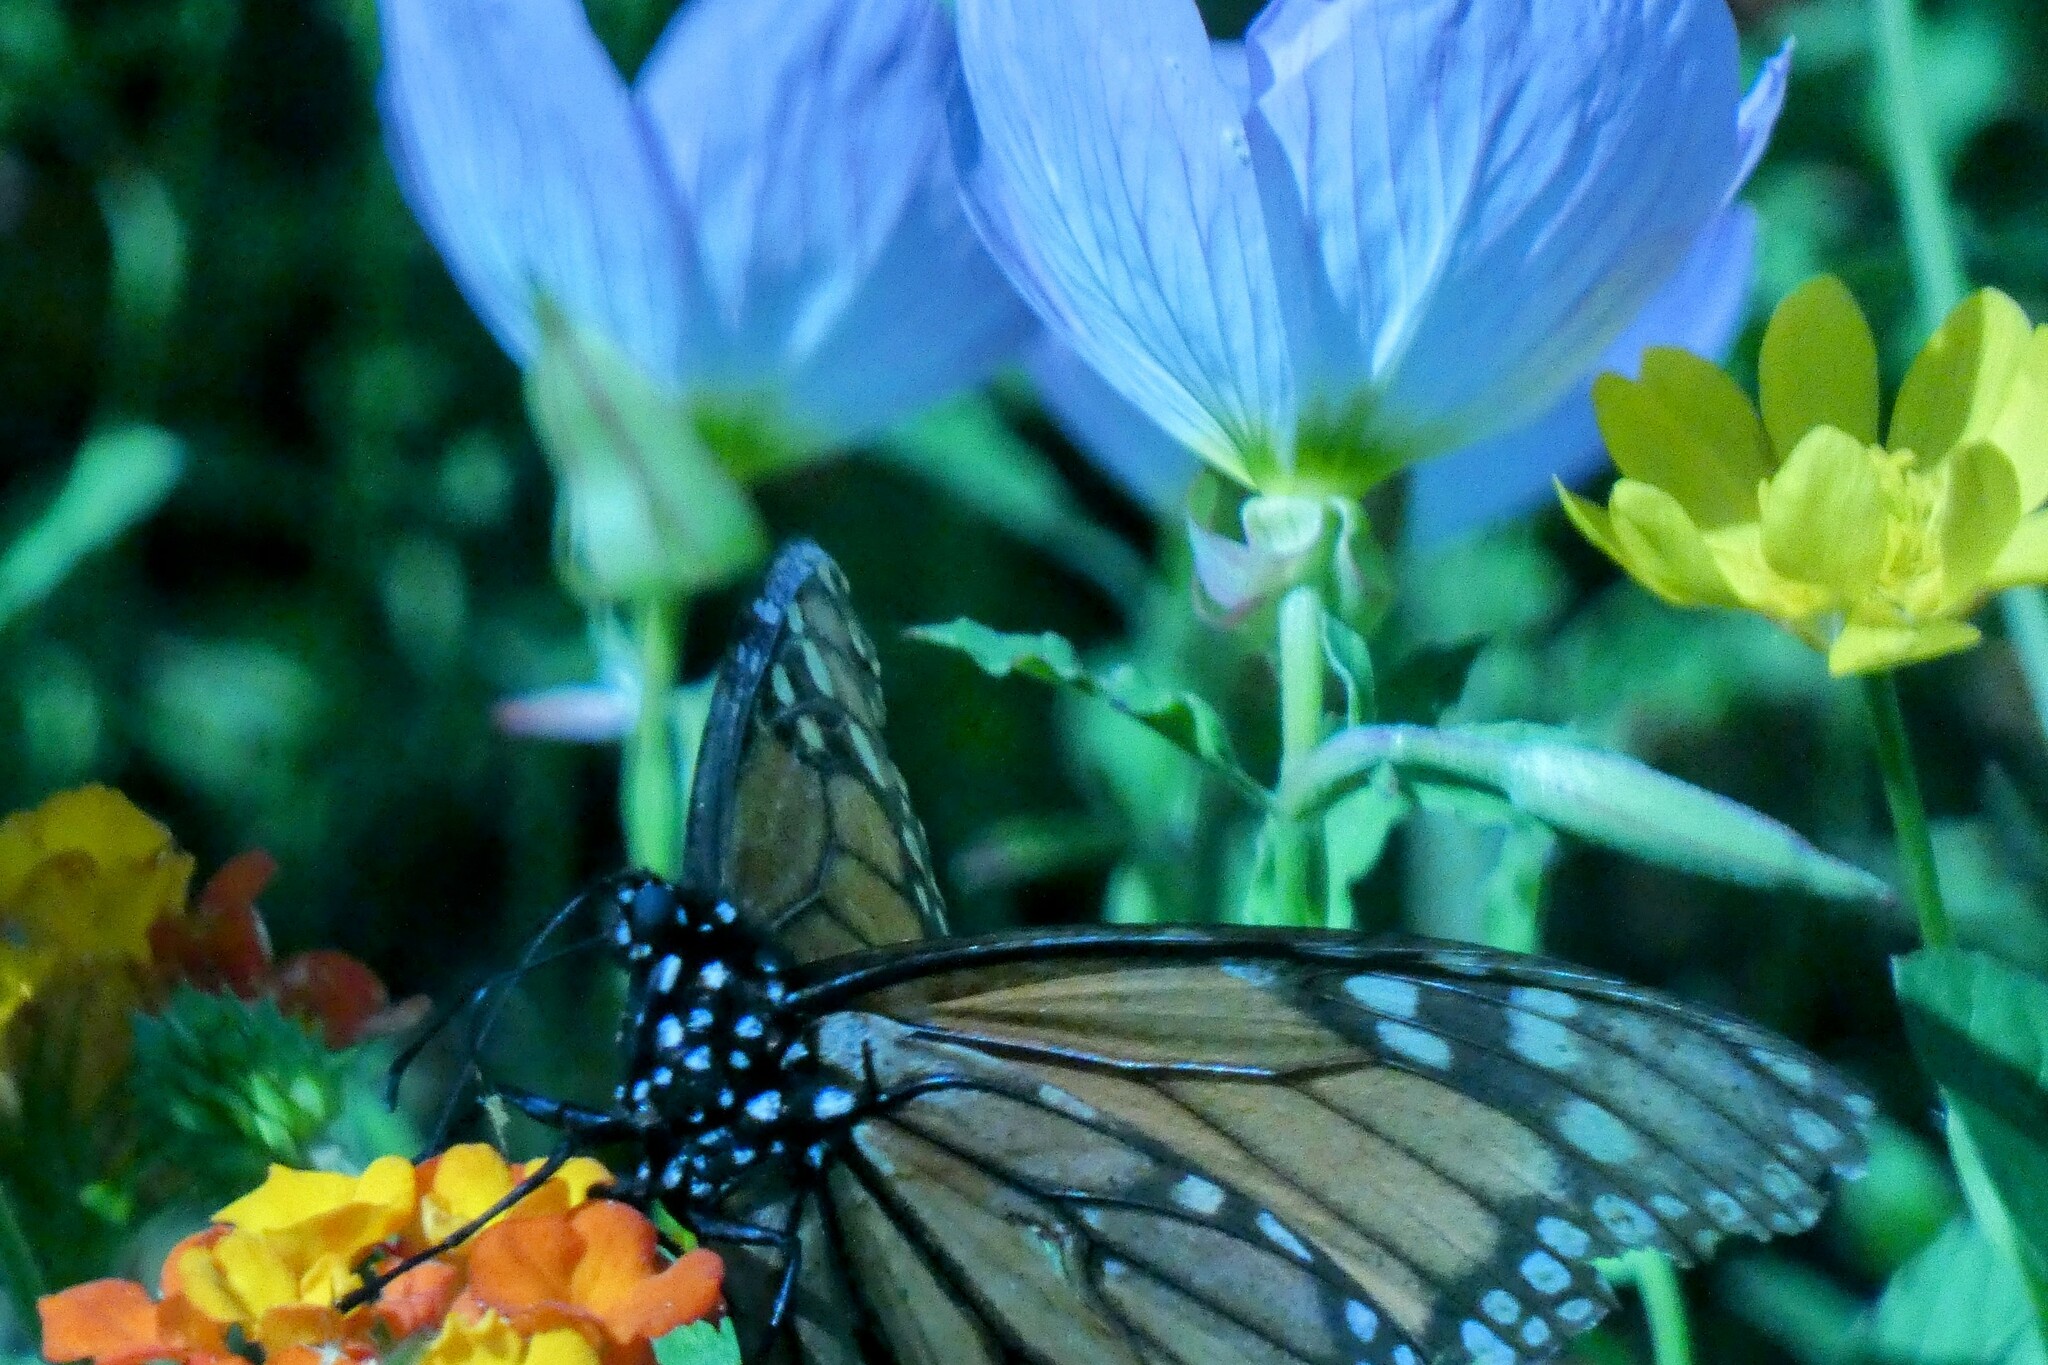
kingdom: Animalia
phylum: Arthropoda
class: Insecta
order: Lepidoptera
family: Nymphalidae
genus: Danaus
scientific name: Danaus plexippus
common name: Monarch
